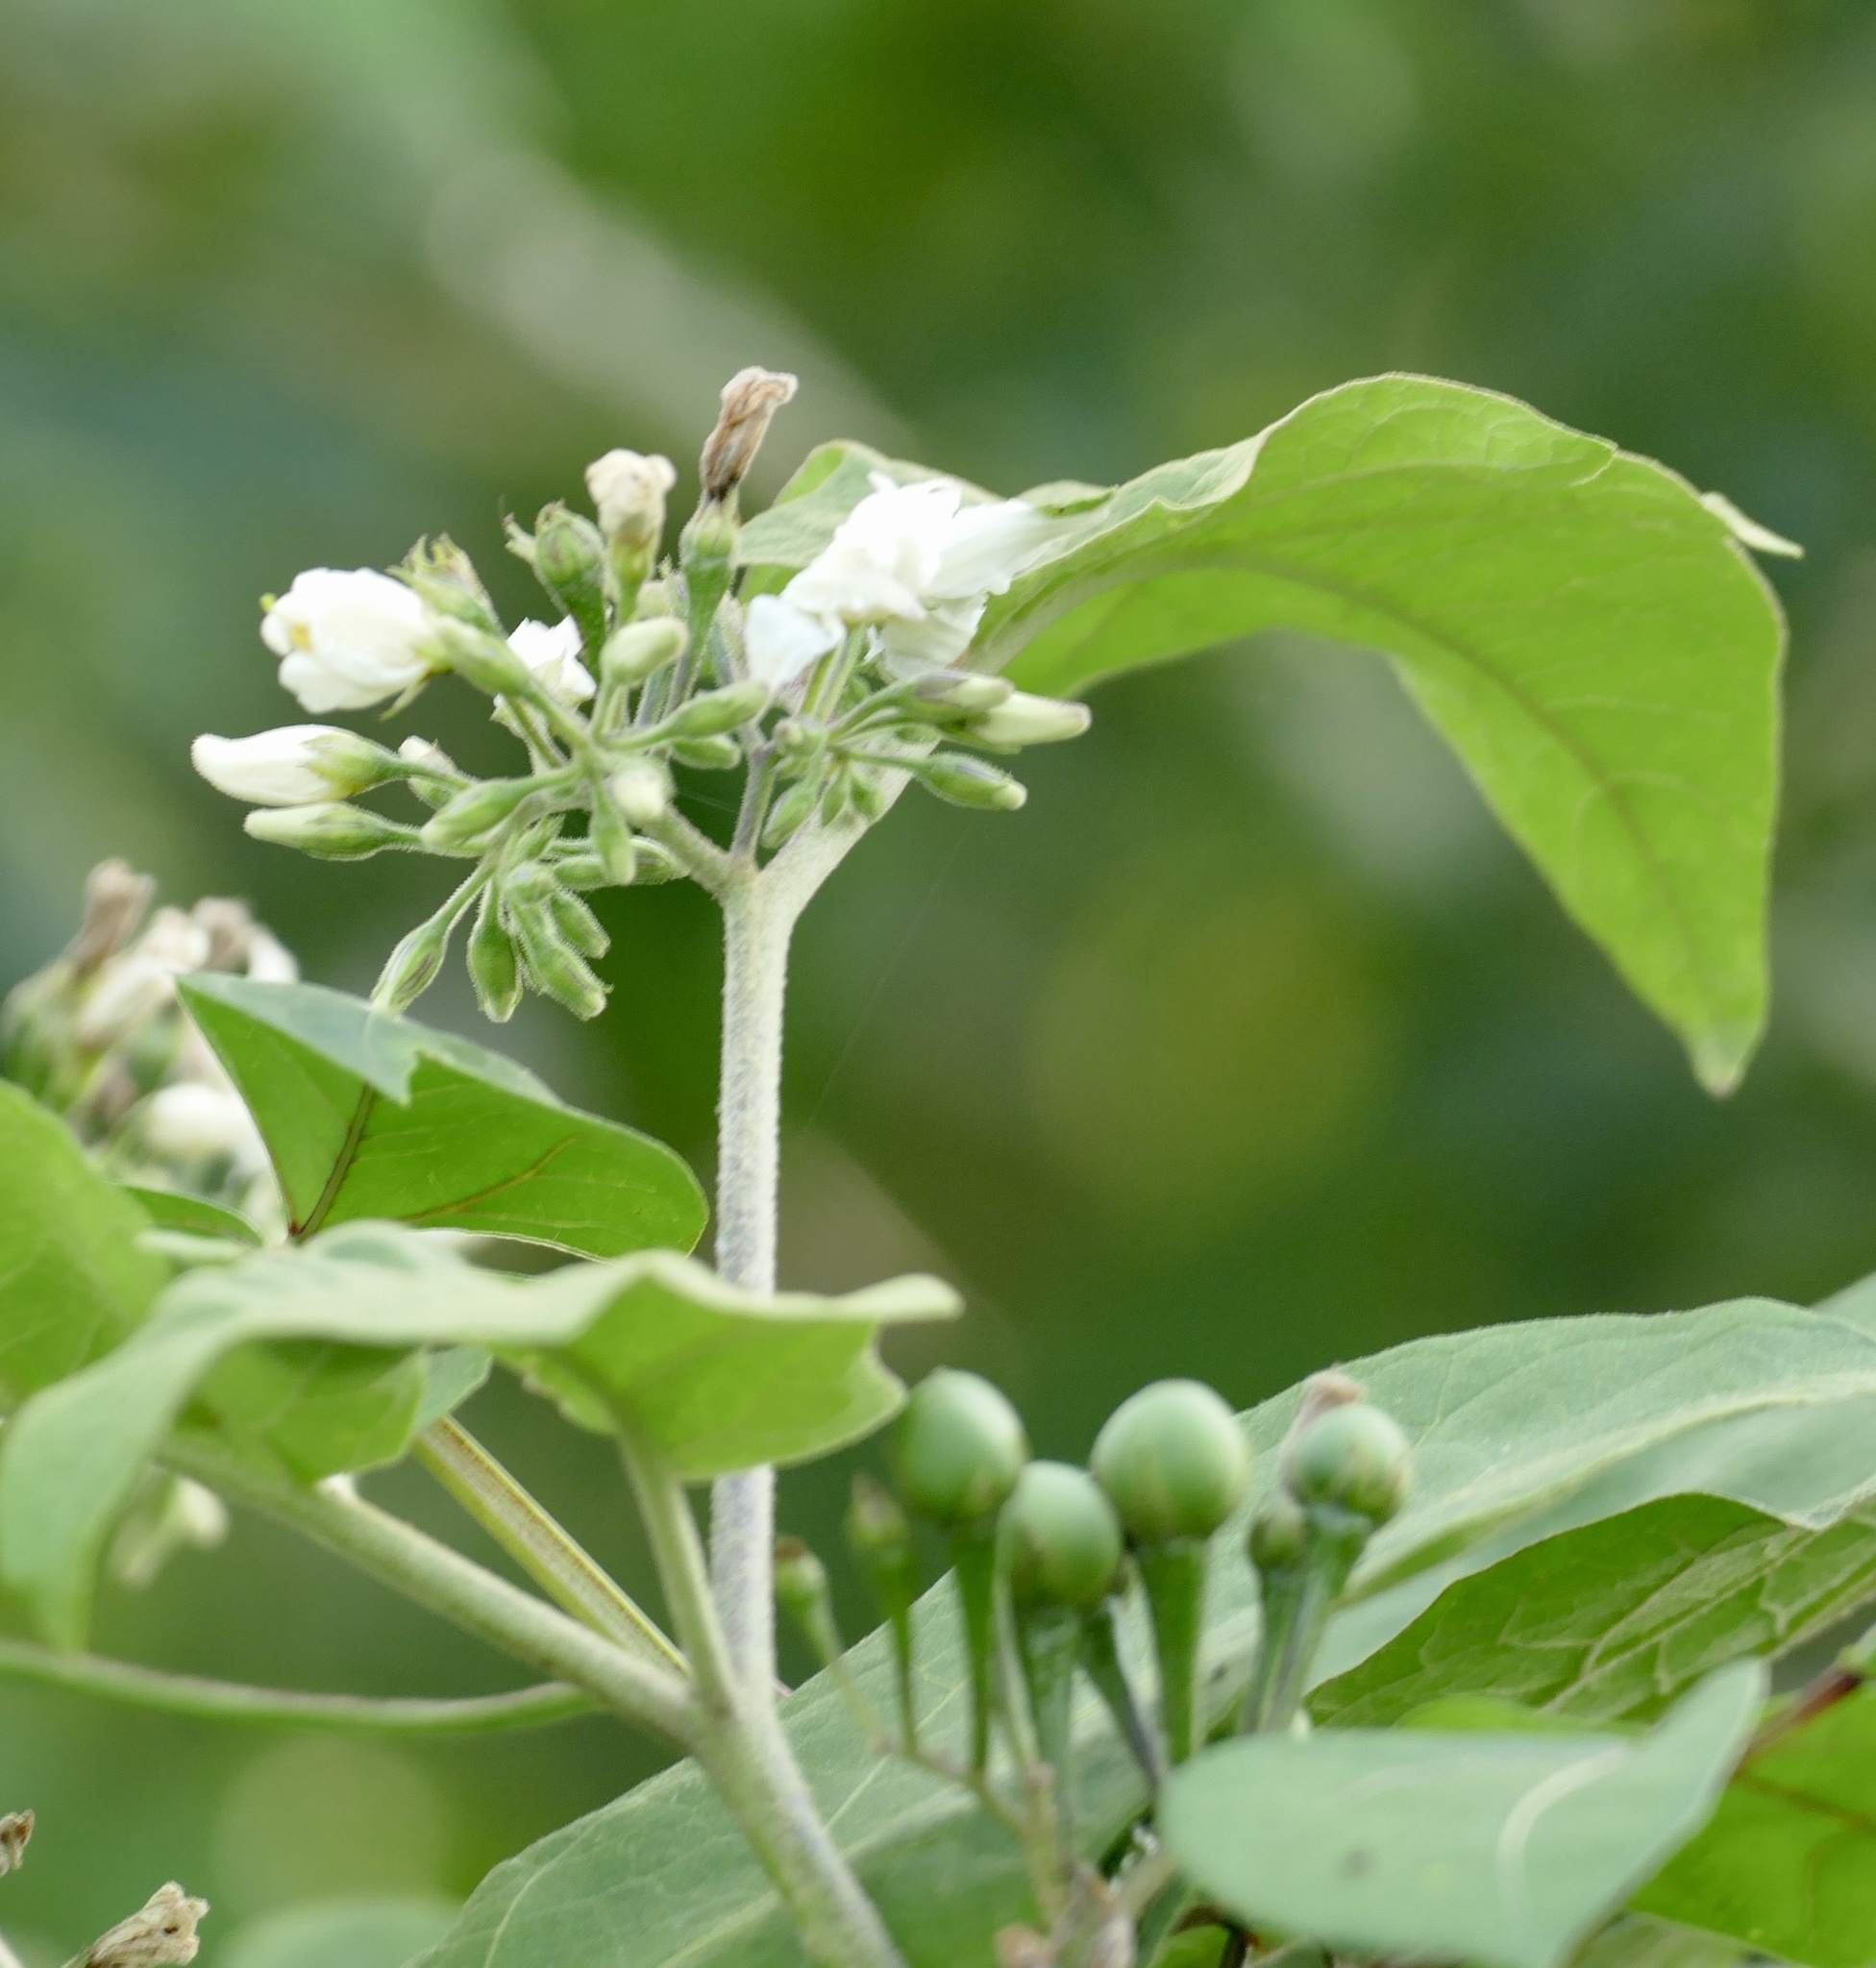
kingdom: Plantae
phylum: Tracheophyta
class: Magnoliopsida
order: Solanales
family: Solanaceae
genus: Solanum
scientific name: Solanum torvum
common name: Turkey berry
